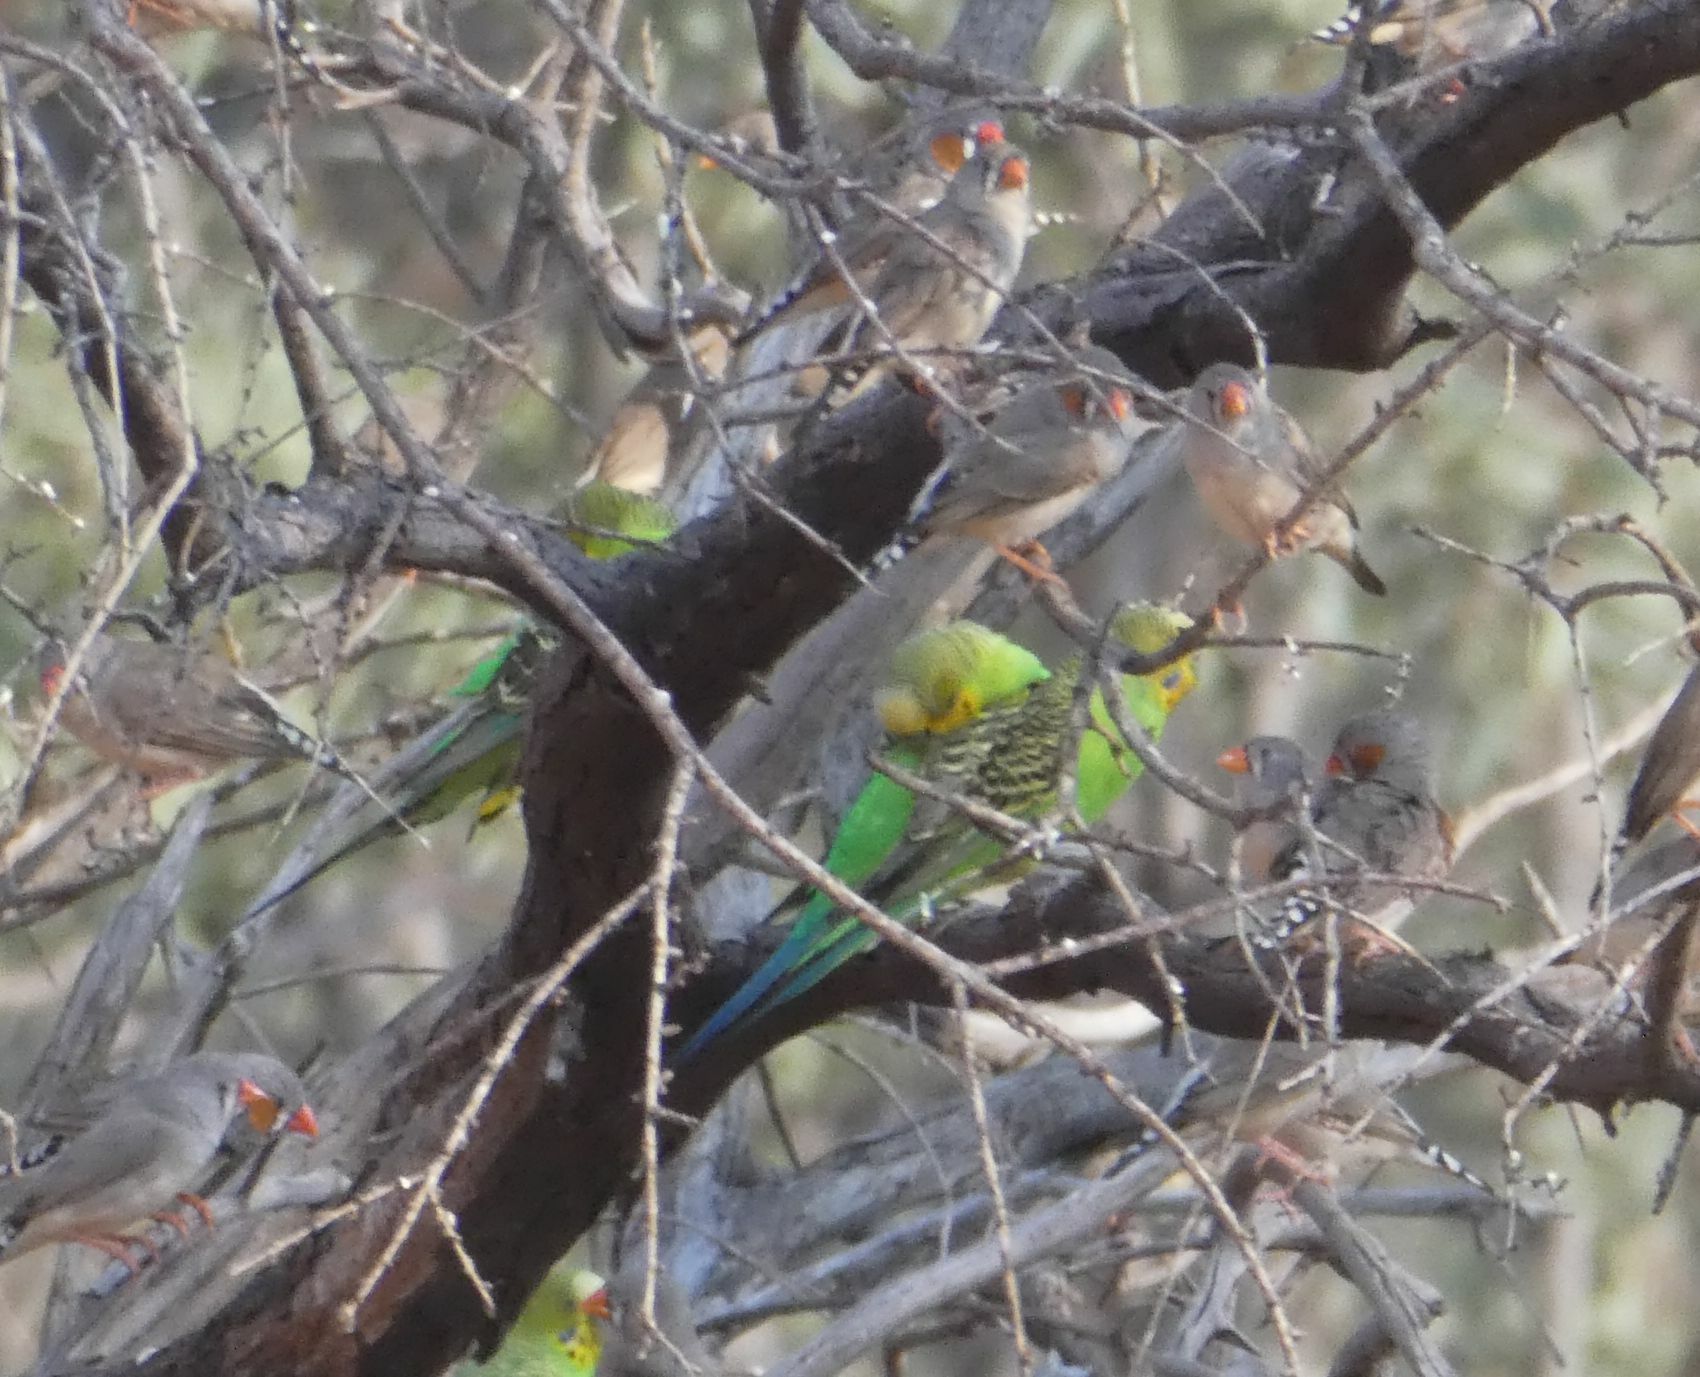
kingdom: Animalia
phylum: Chordata
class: Aves
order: Psittaciformes
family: Psittacidae
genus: Melopsittacus
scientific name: Melopsittacus undulatus
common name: Budgerigar
